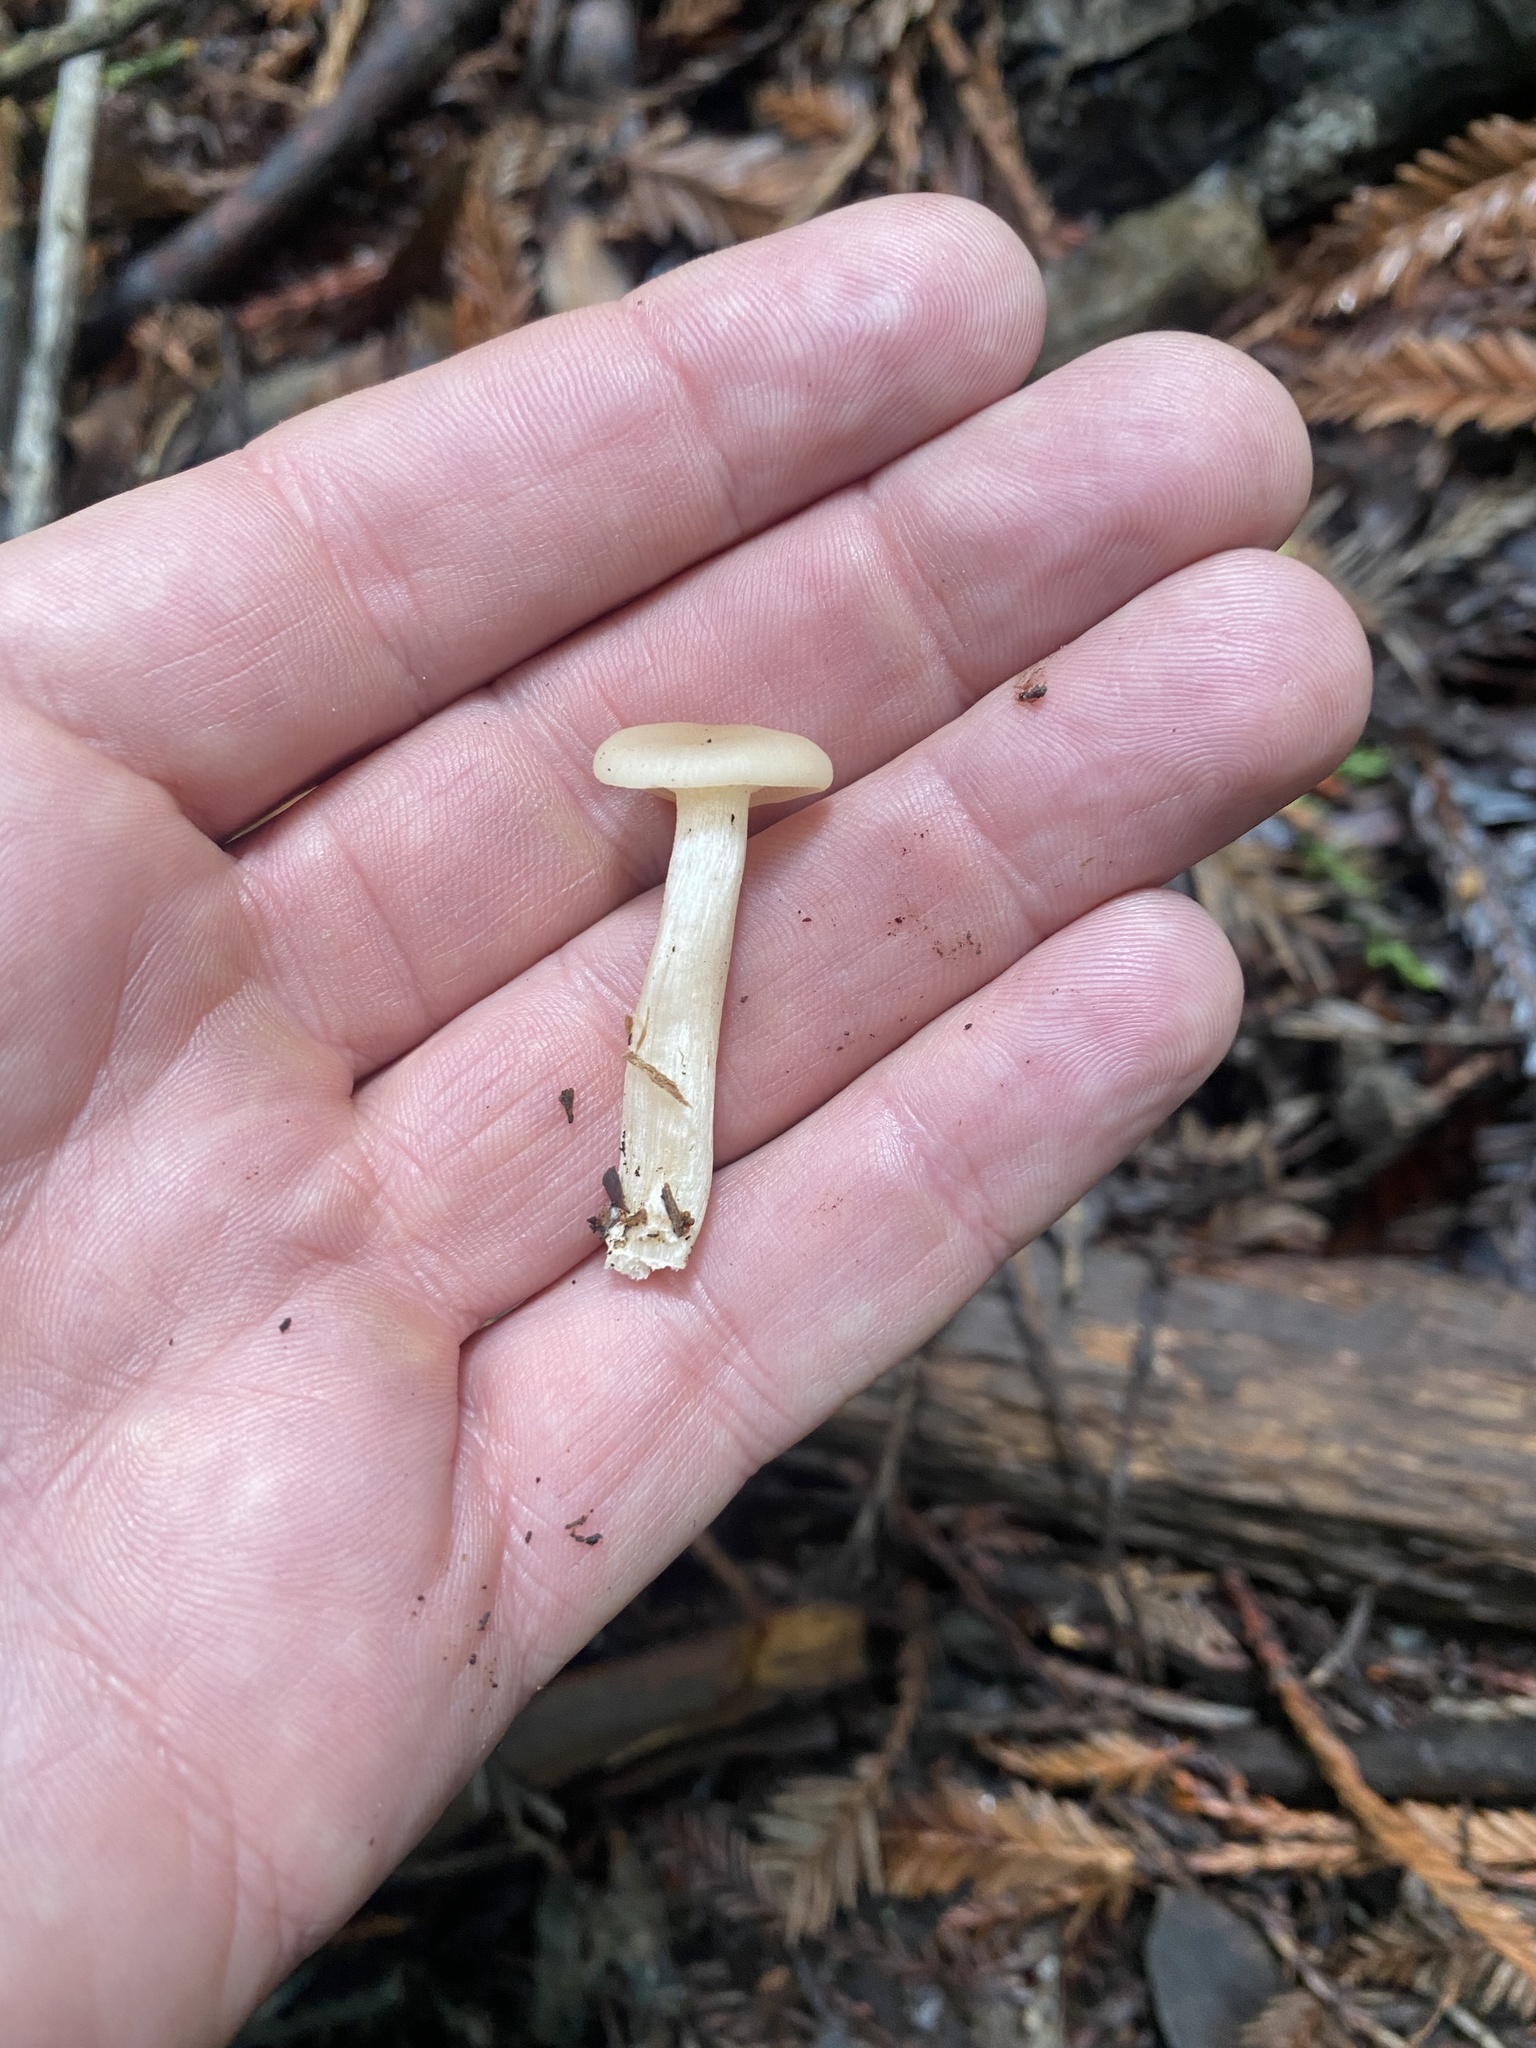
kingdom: Fungi
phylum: Basidiomycota
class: Agaricomycetes
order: Agaricales
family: Tricholomataceae
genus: Clitocybe
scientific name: Clitocybe fragrans
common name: Fragrant funnel
